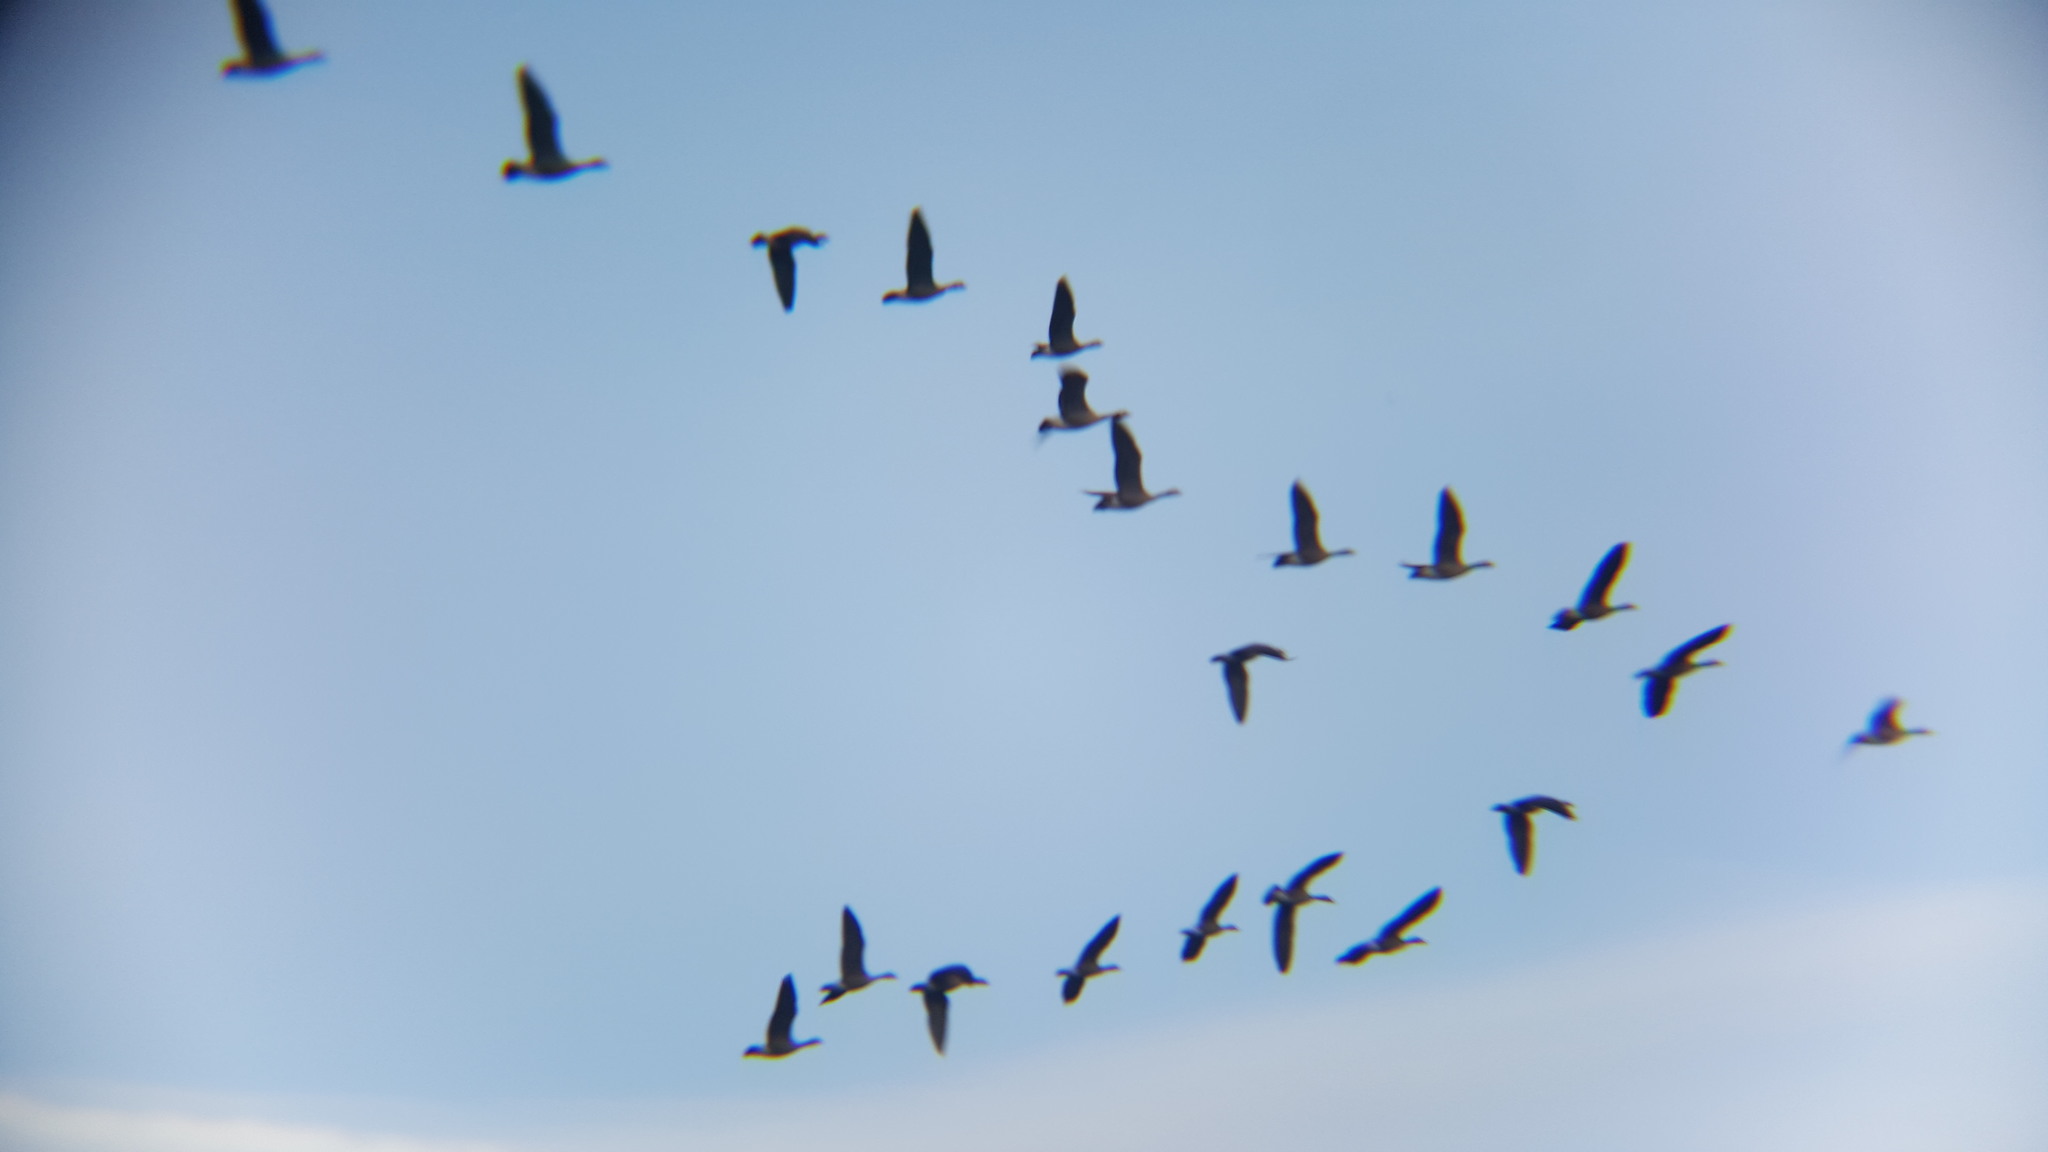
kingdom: Animalia
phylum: Chordata
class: Aves
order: Anseriformes
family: Anatidae
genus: Branta
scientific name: Branta canadensis
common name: Canada goose
